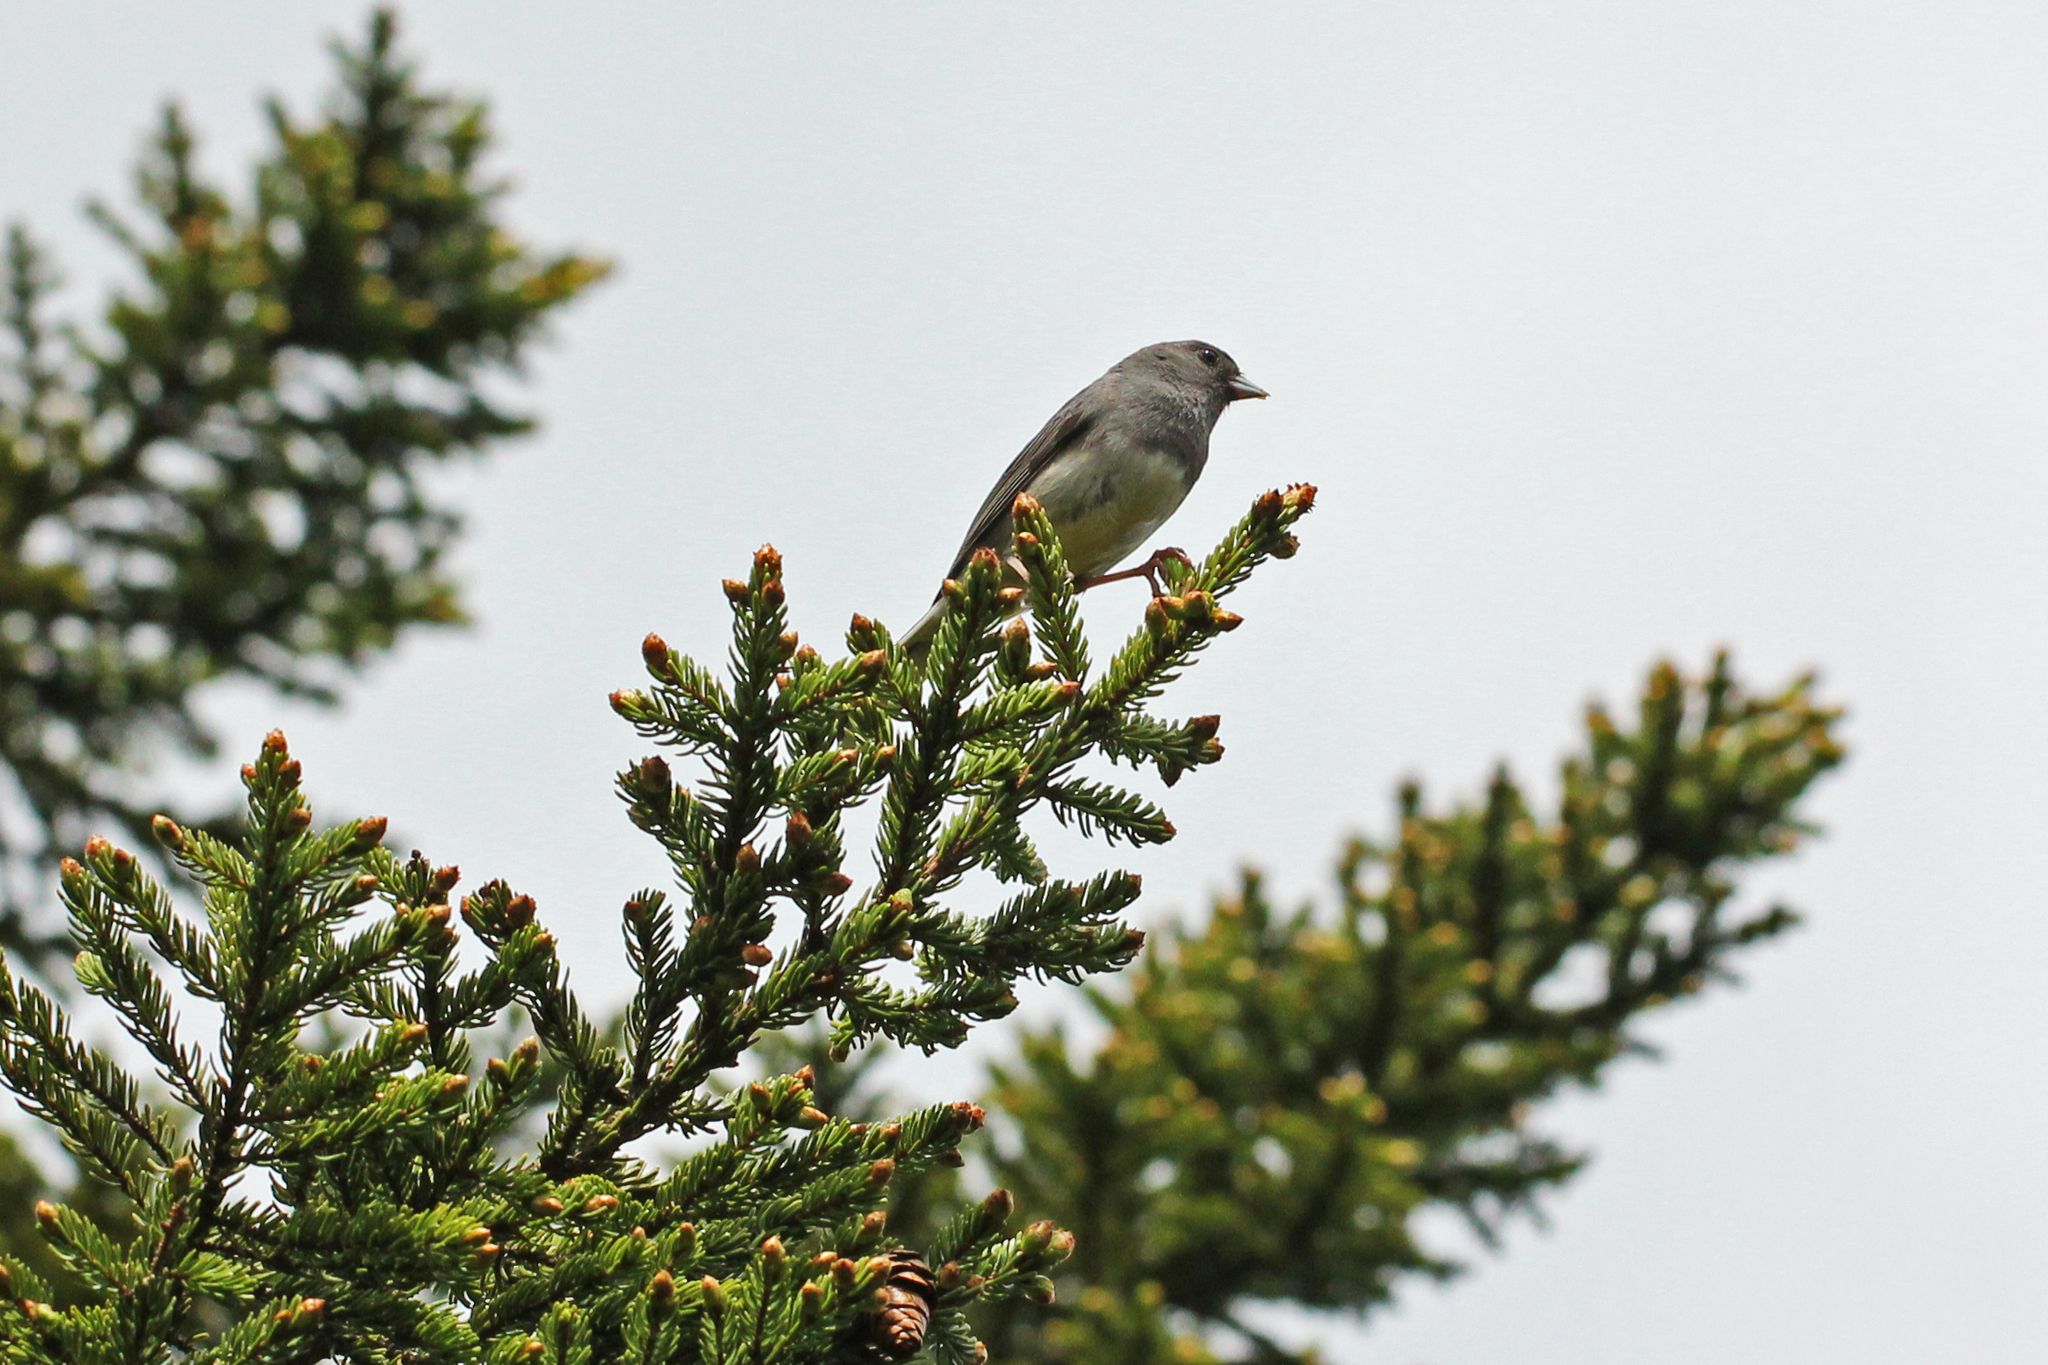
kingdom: Animalia
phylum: Chordata
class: Aves
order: Passeriformes
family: Passerellidae
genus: Junco
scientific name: Junco hyemalis
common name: Dark-eyed junco
